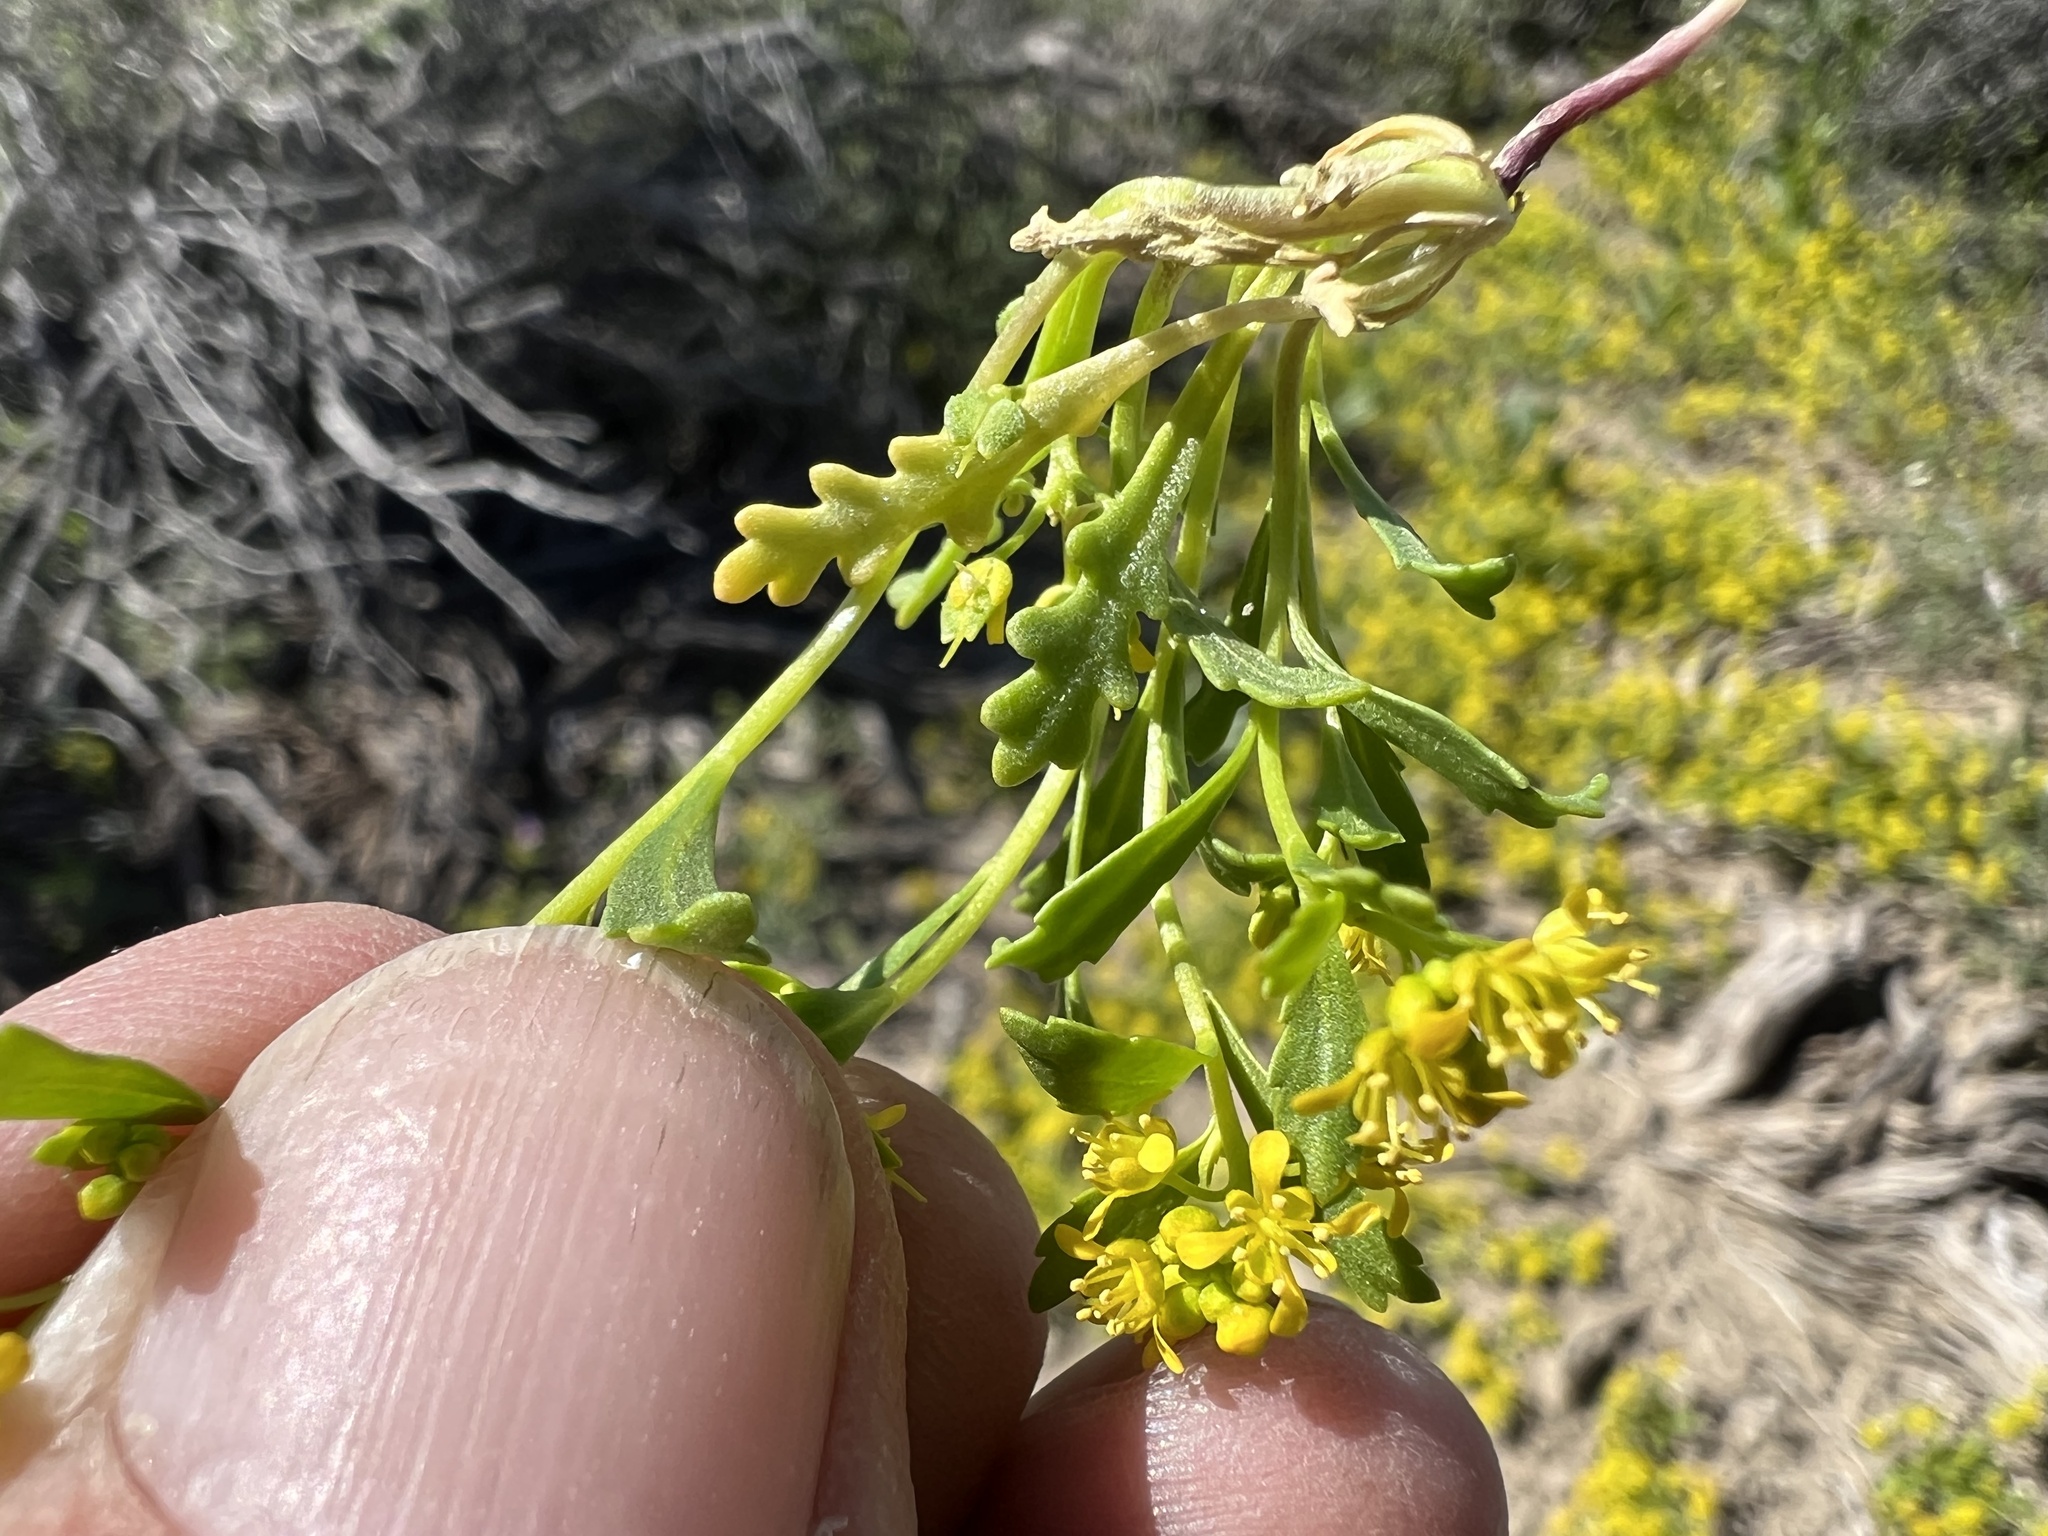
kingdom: Plantae
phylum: Tracheophyta
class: Magnoliopsida
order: Brassicales
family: Brassicaceae
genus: Lepidium
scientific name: Lepidium flavum
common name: Yellow pepperwort
